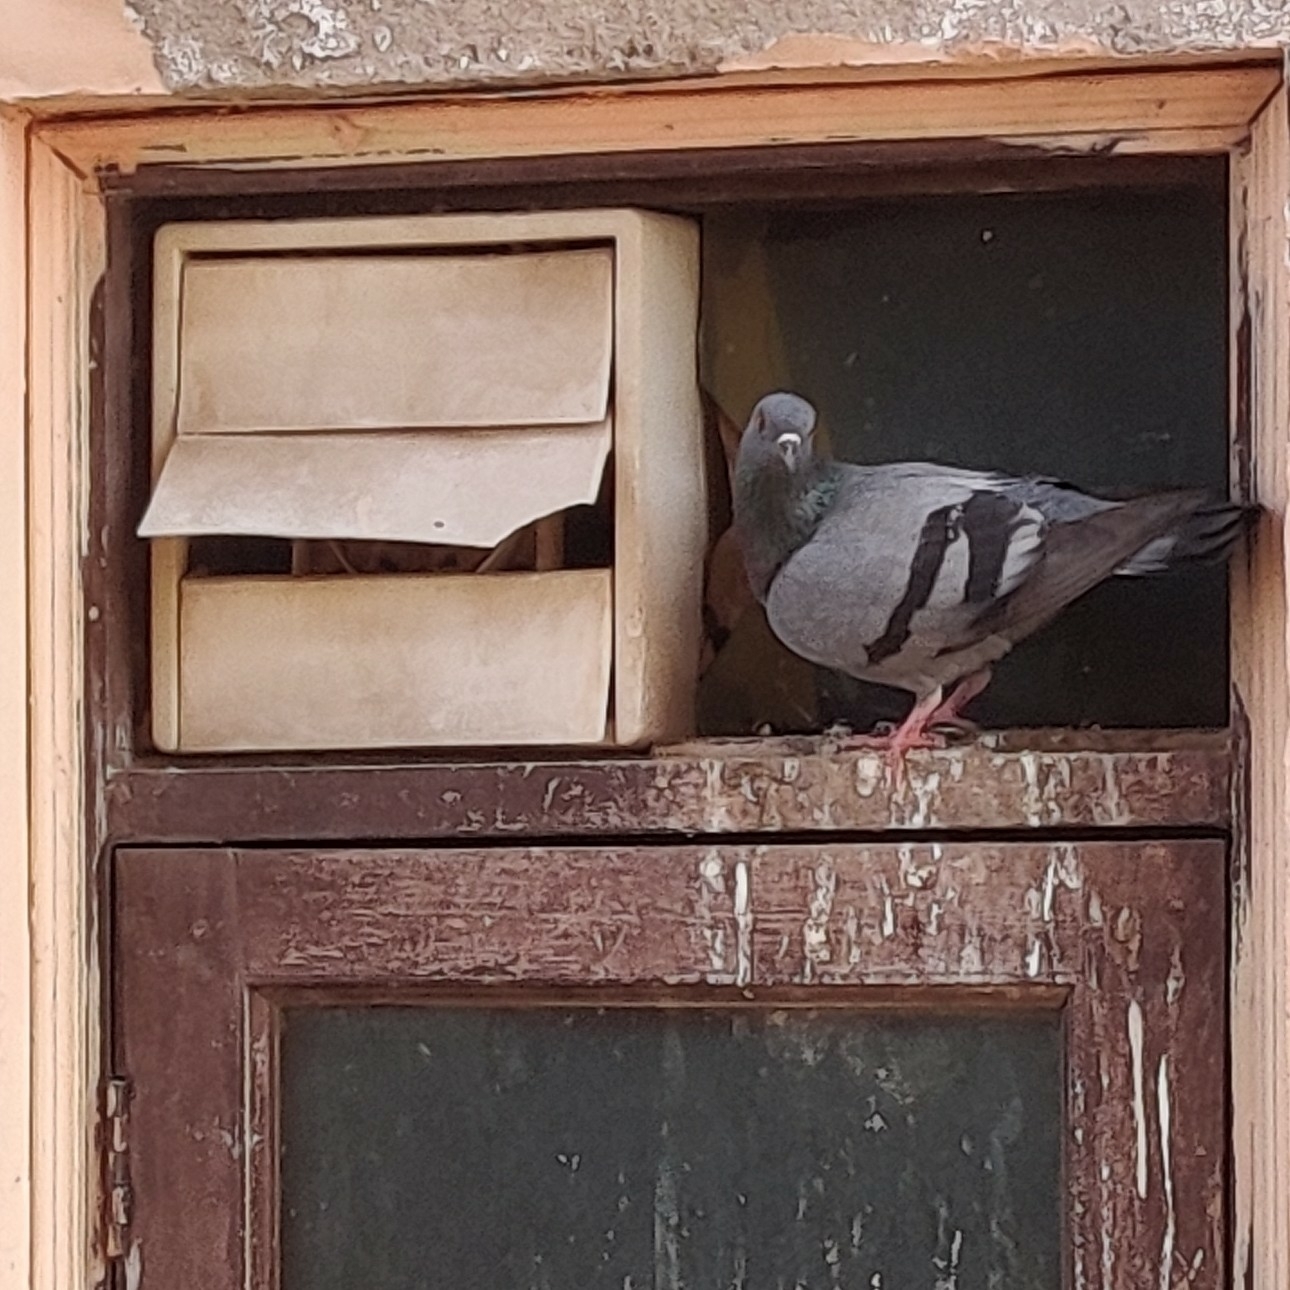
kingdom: Animalia
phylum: Chordata
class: Aves
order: Columbiformes
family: Columbidae
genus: Columba
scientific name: Columba livia
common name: Rock pigeon
